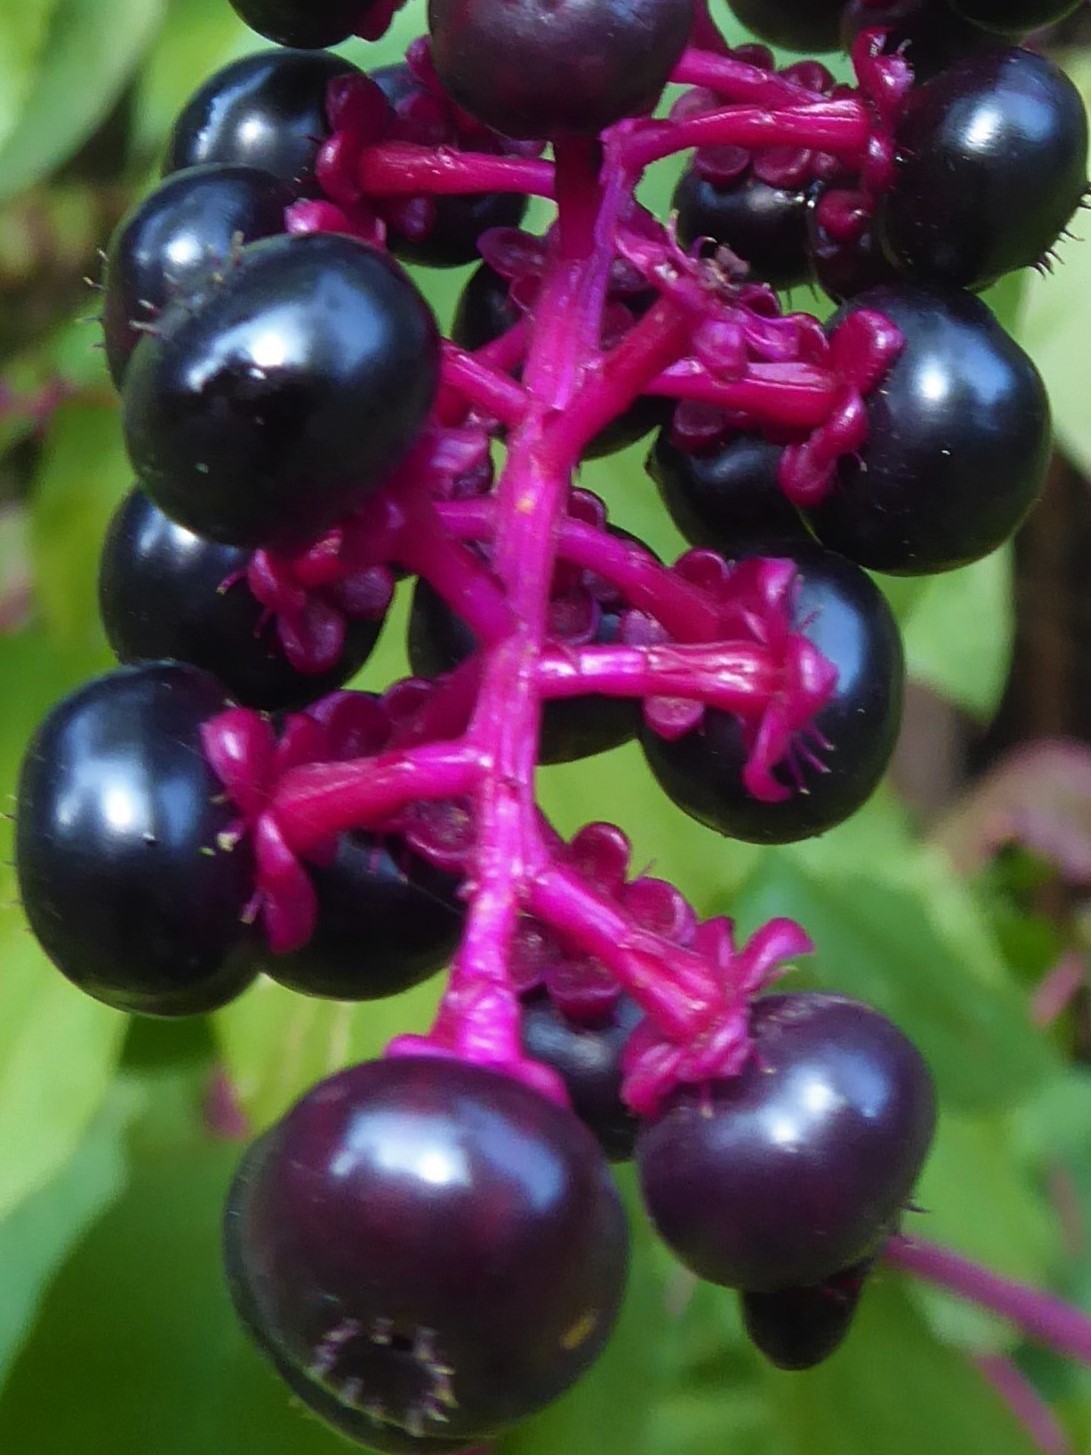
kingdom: Plantae
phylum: Tracheophyta
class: Magnoliopsida
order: Caryophyllales
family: Phytolaccaceae
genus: Phytolacca
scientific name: Phytolacca americana
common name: American pokeweed
